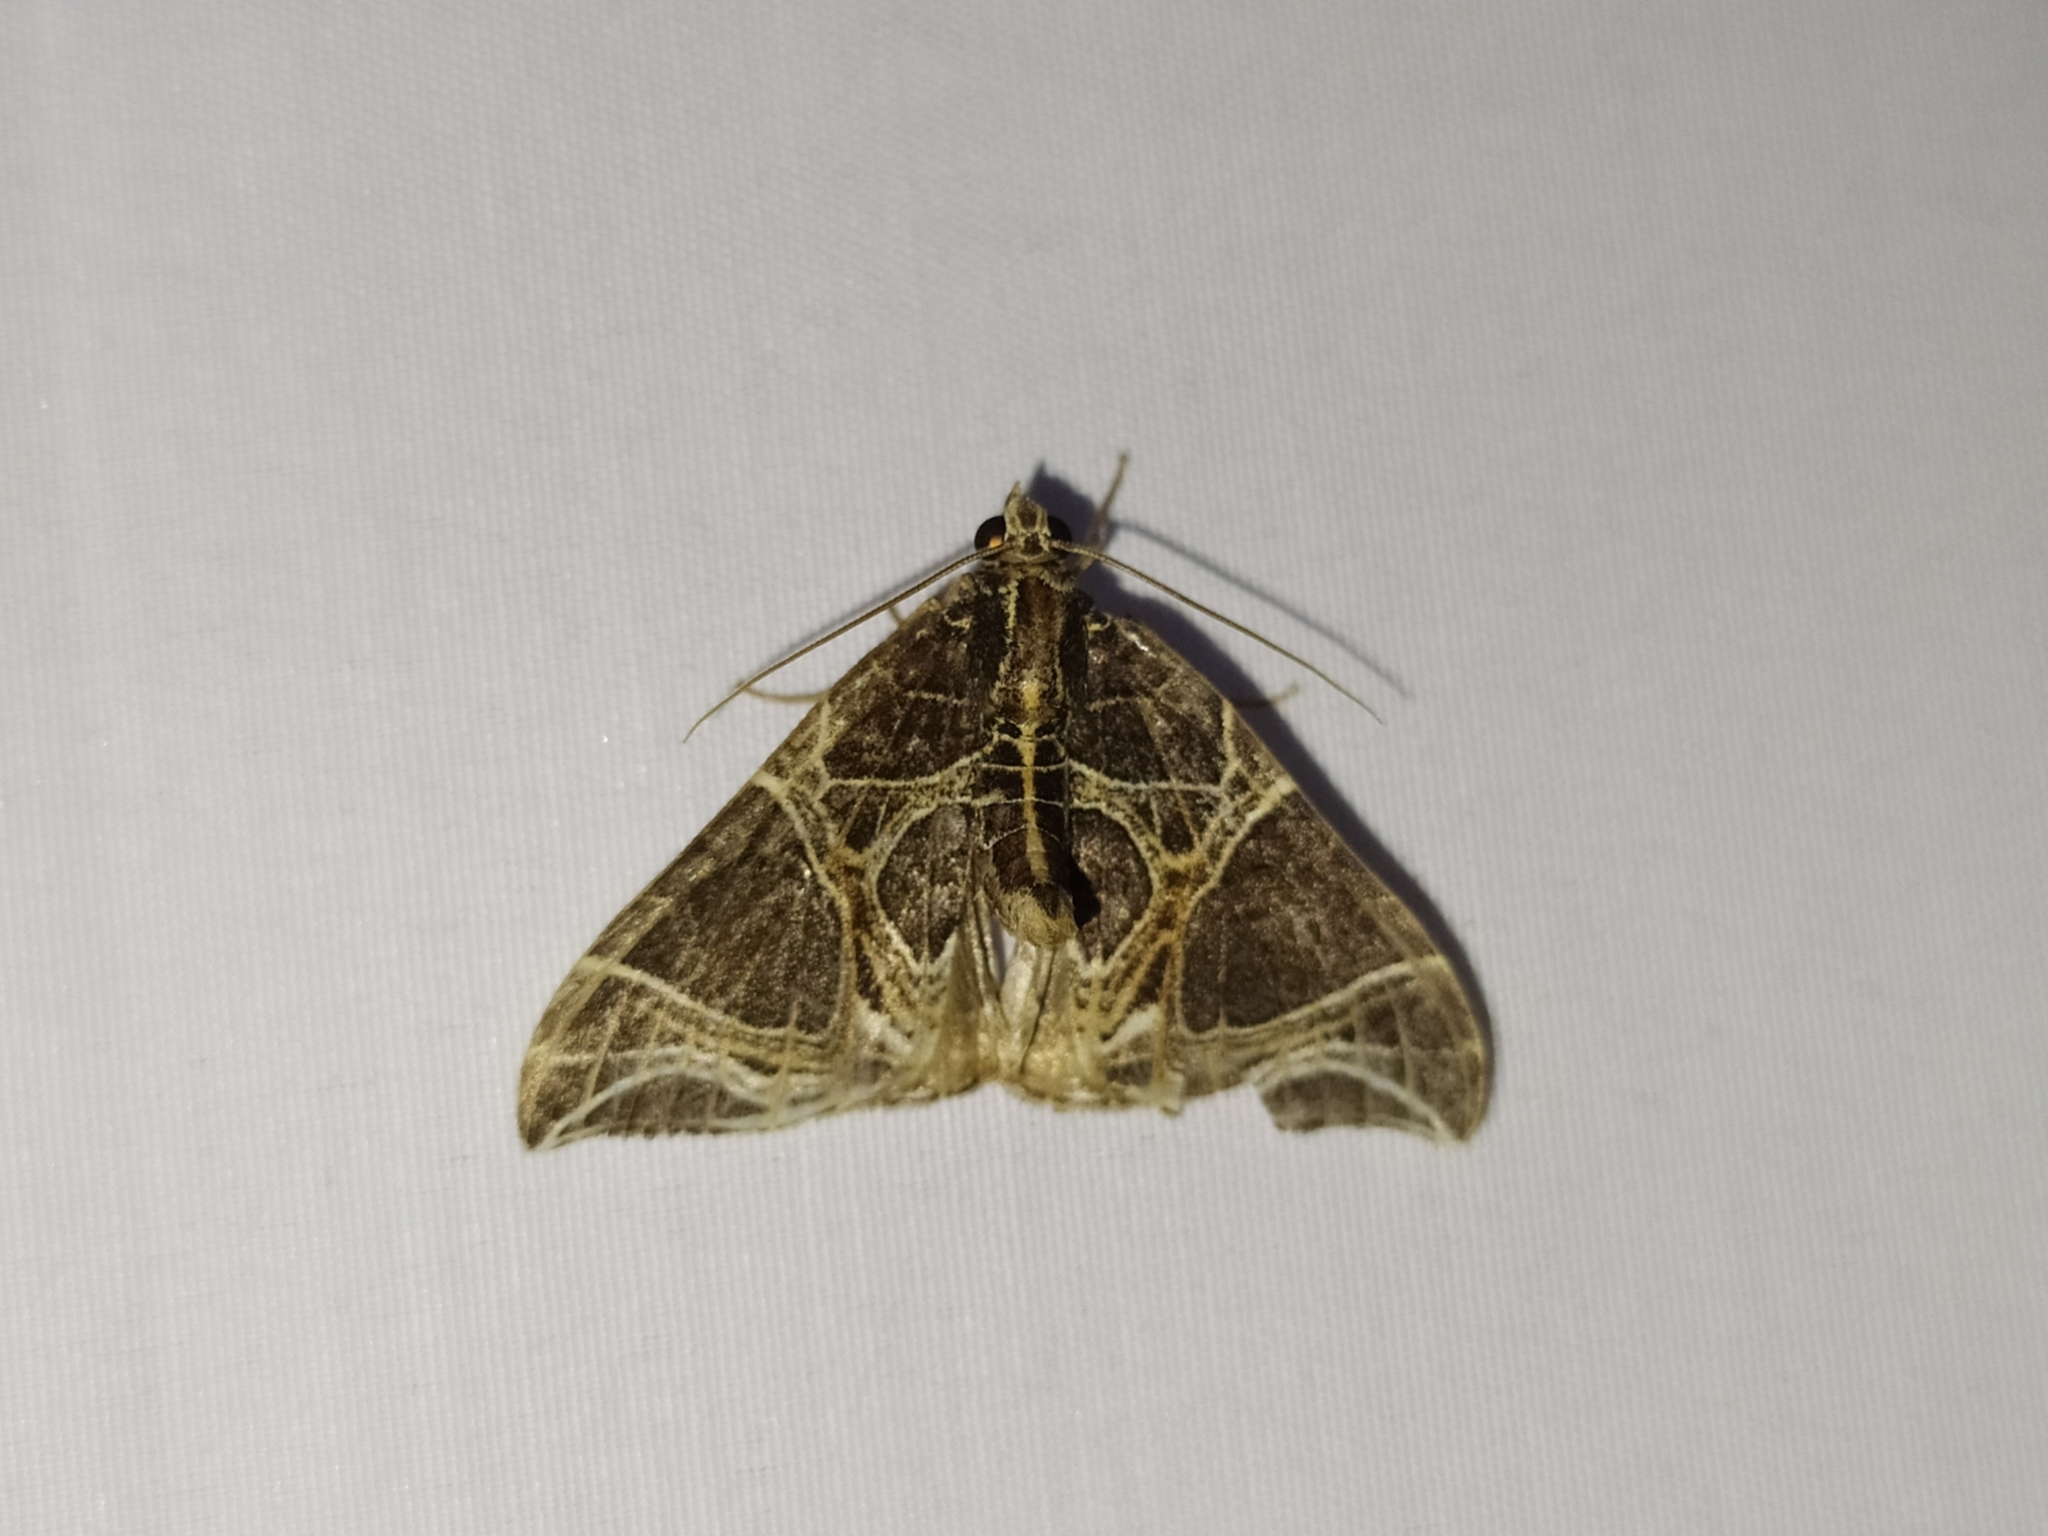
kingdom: Animalia
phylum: Arthropoda
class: Insecta
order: Lepidoptera
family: Geometridae
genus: Ecliptopera
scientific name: Ecliptopera rectilinea
